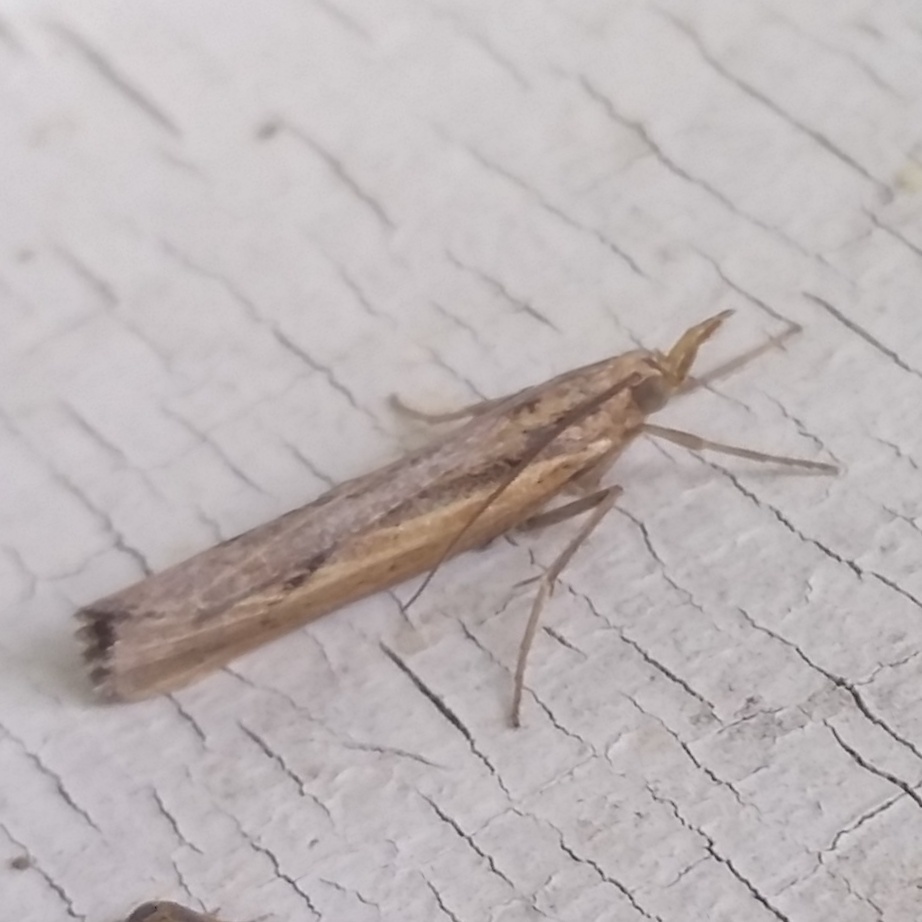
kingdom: Animalia
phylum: Arthropoda
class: Insecta
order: Lepidoptera
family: Crambidae
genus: Pediasia
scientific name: Pediasia trisecta
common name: Sod webworm moth
